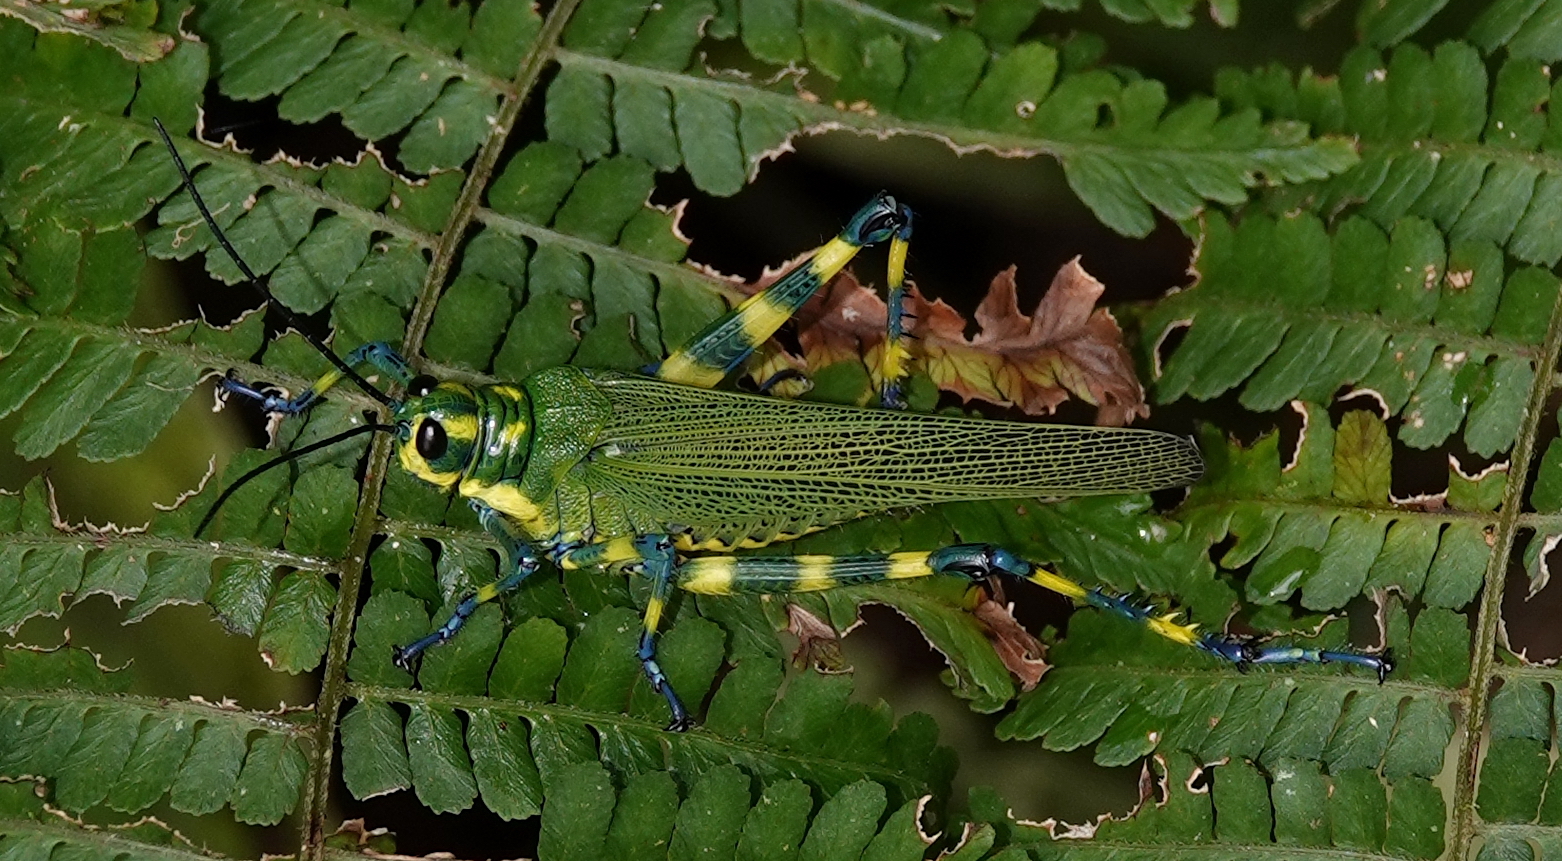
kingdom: Animalia
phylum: Arthropoda
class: Insecta
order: Orthoptera
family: Romaleidae
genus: Chromacris
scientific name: Chromacris psittacus
